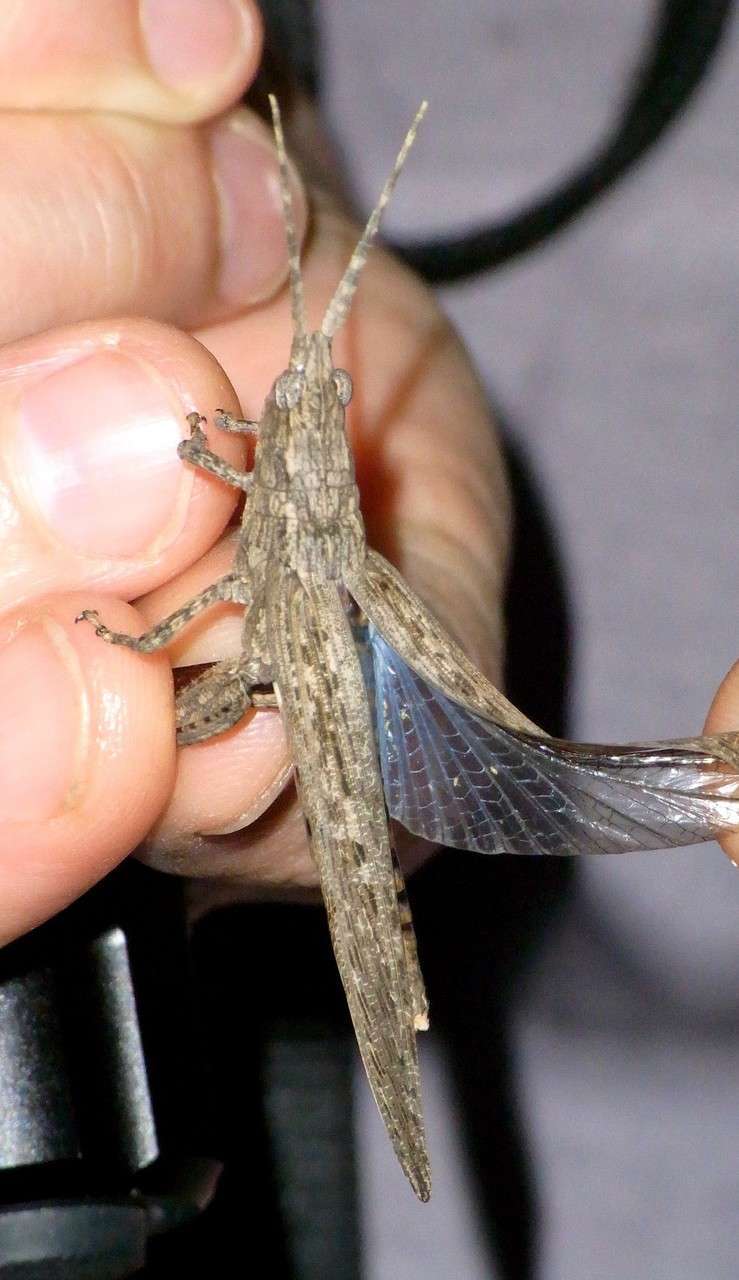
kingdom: Animalia
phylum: Arthropoda
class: Insecta
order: Orthoptera
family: Acrididae
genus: Coryphistes
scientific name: Coryphistes ruricola
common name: Bark-mimicking grasshopper
